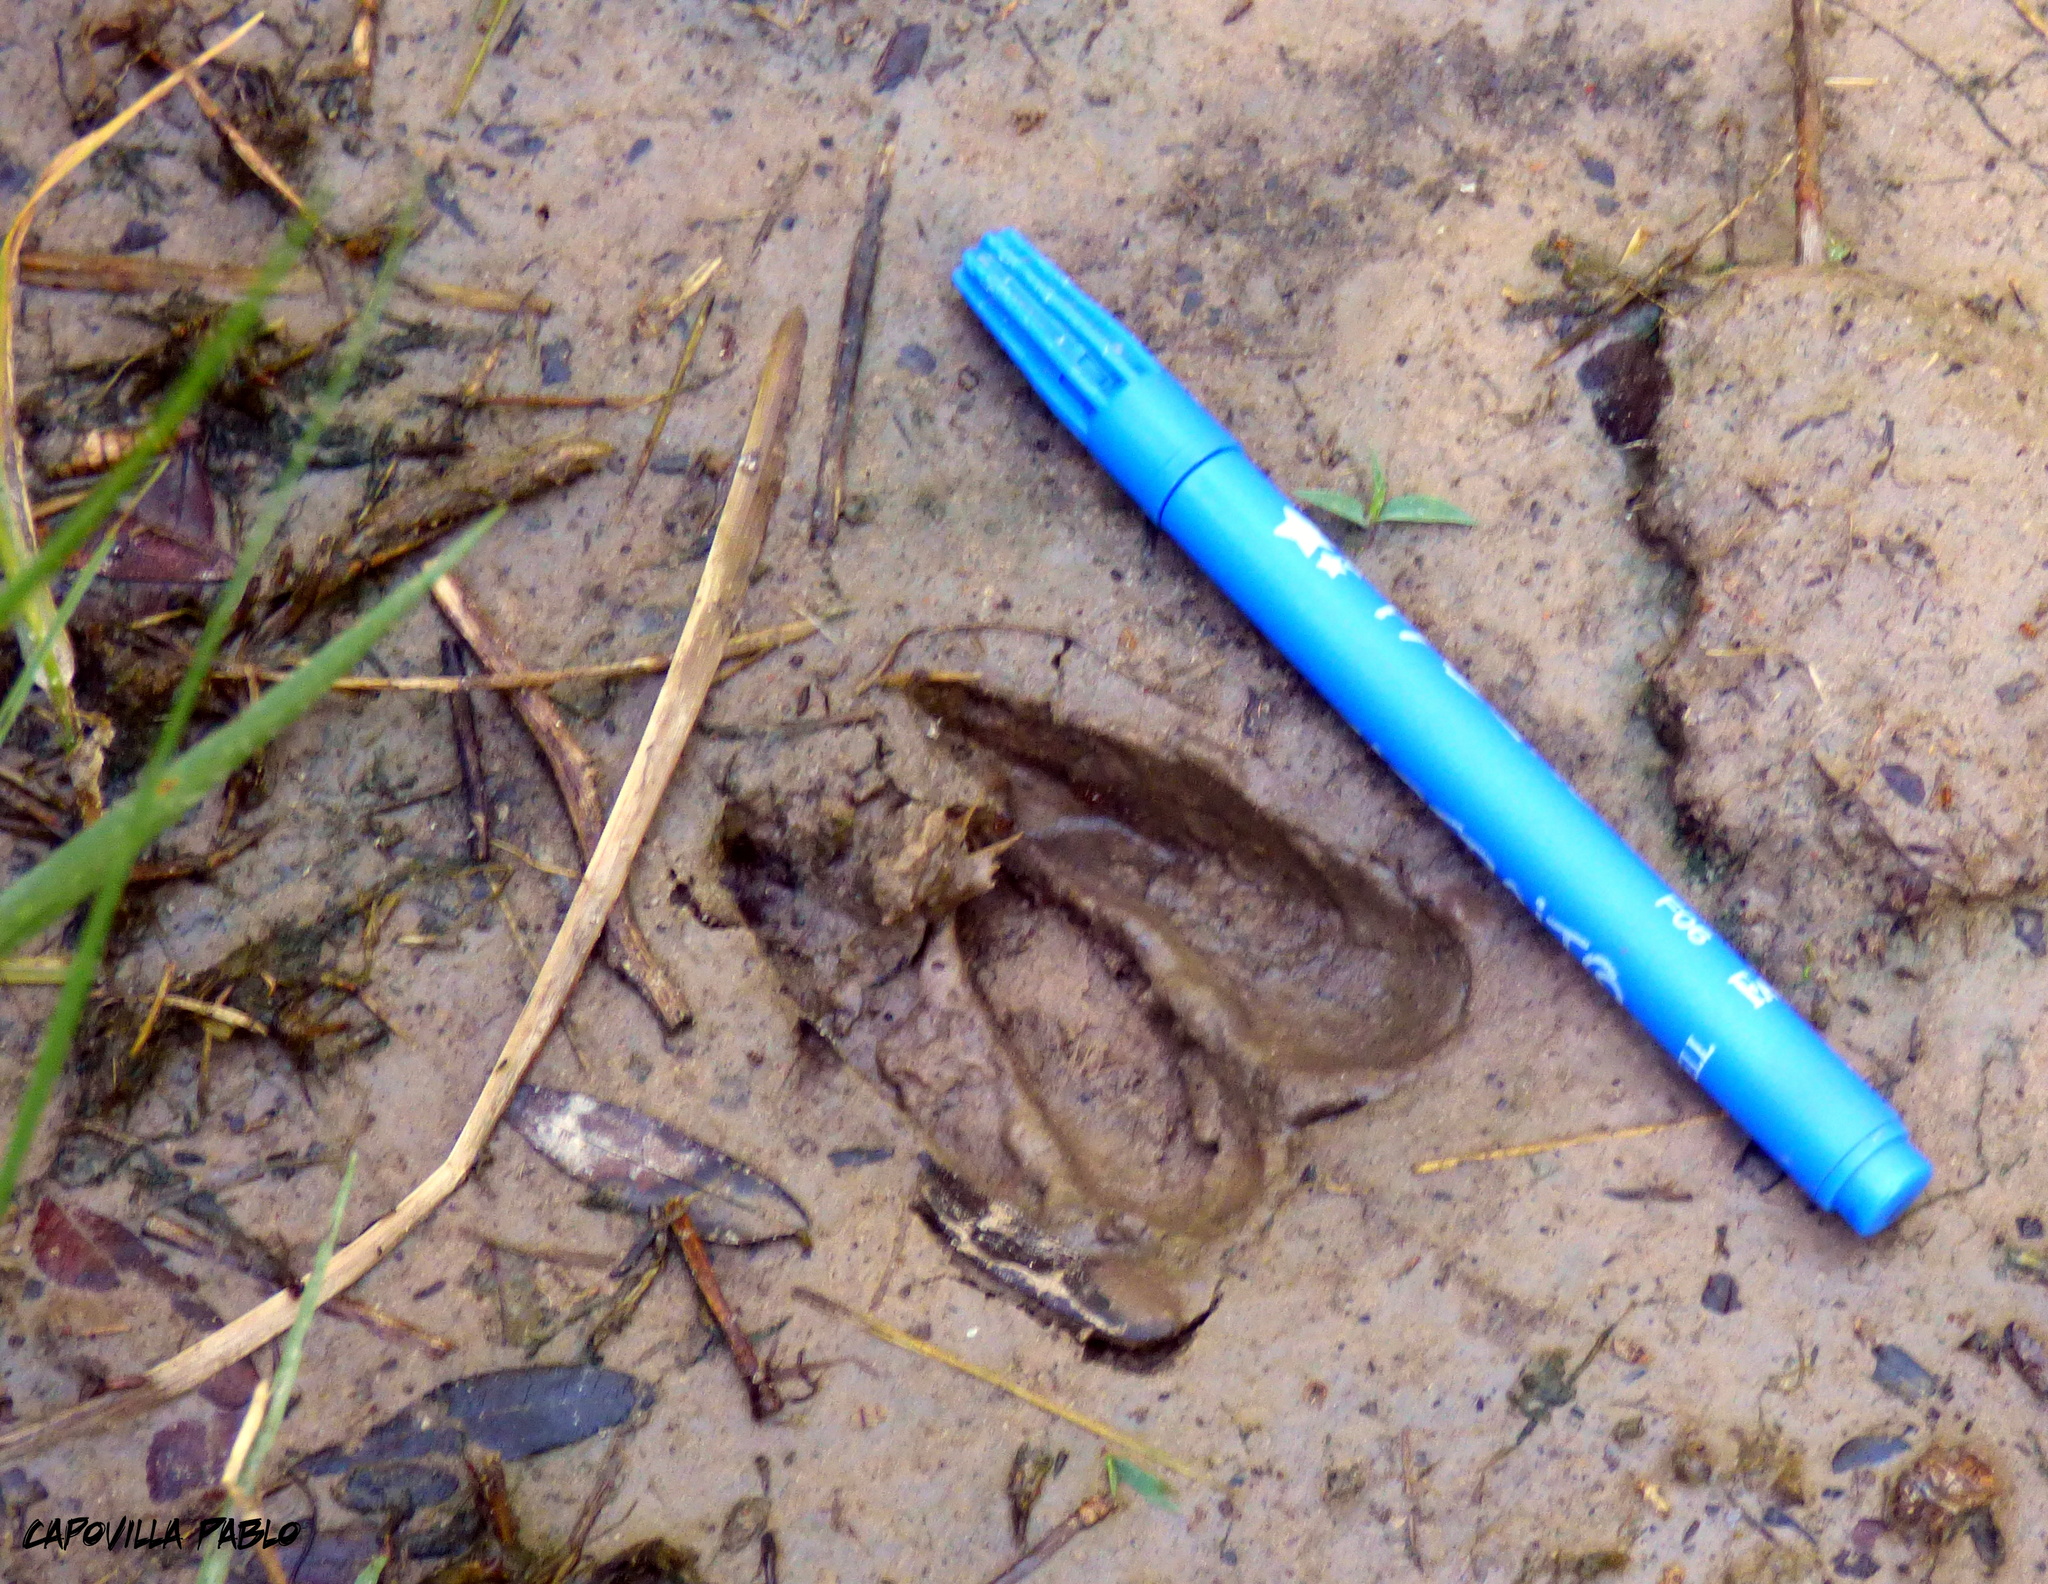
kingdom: Animalia
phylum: Chordata
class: Mammalia
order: Artiodactyla
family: Cervidae
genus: Mazama
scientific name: Mazama gouazoubira
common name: Gray brocket
